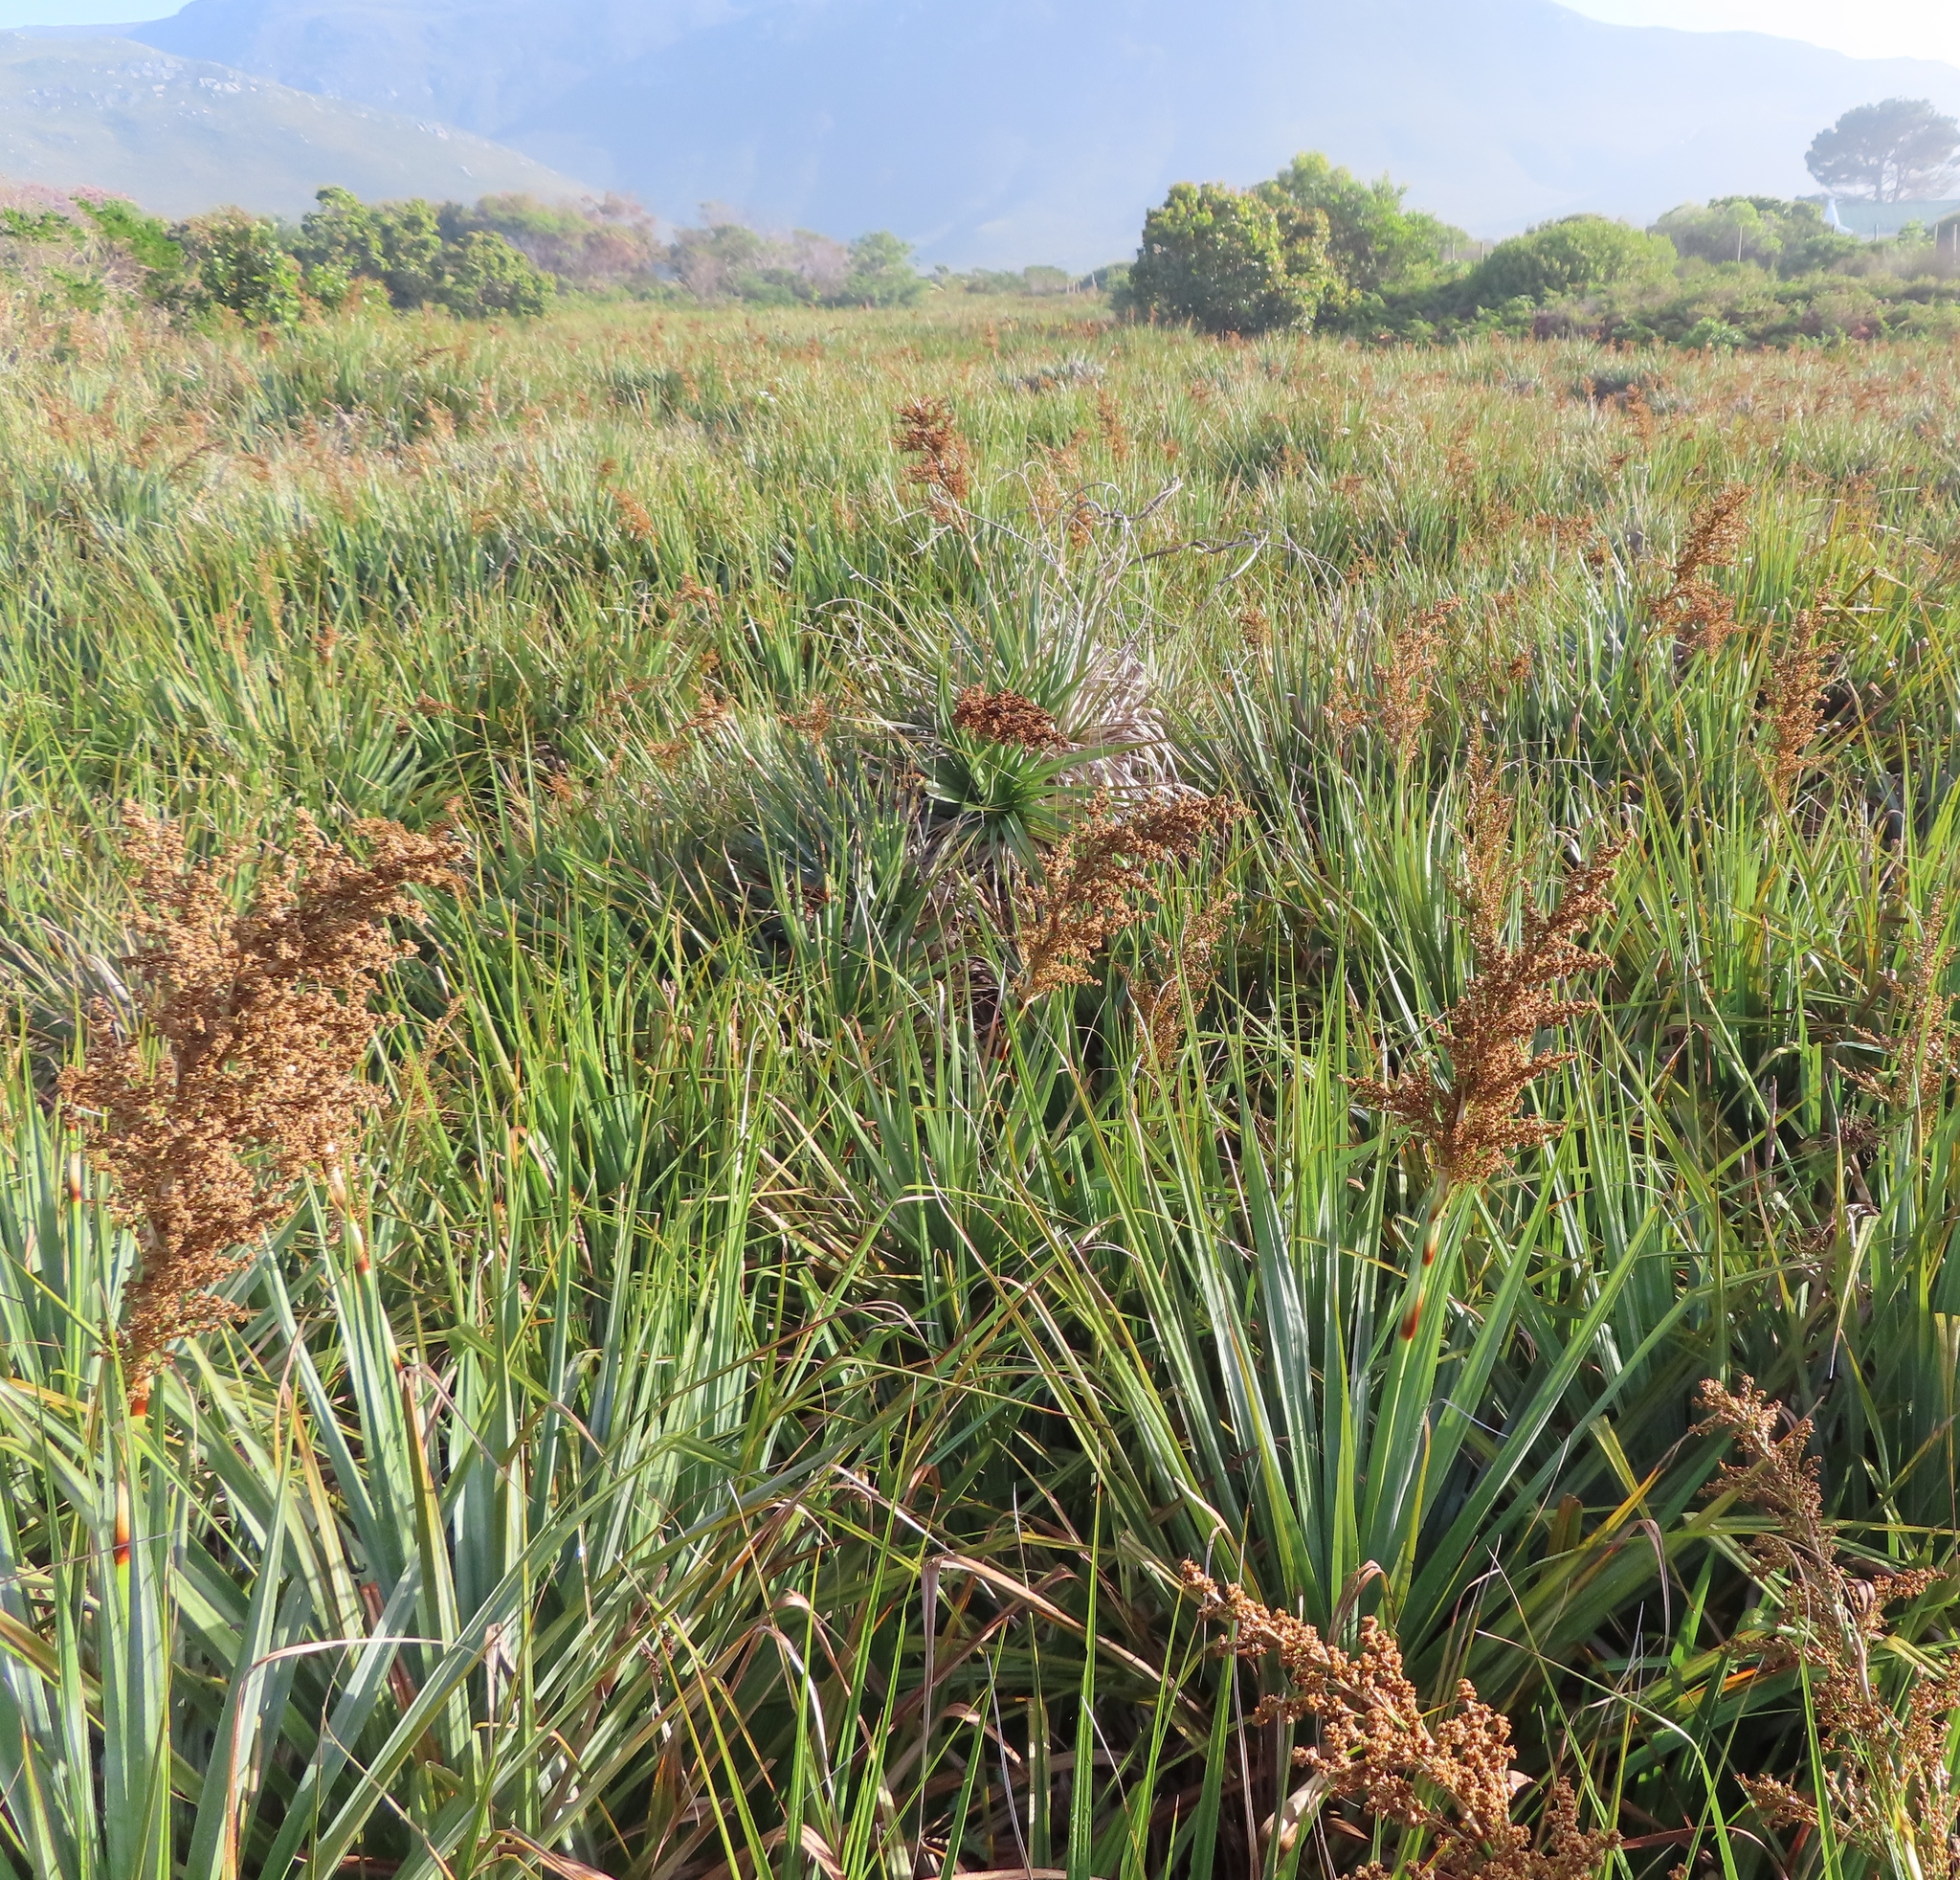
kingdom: Plantae
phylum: Tracheophyta
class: Liliopsida
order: Poales
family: Thurniaceae
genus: Prionium
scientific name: Prionium serratum
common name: Palmiet
